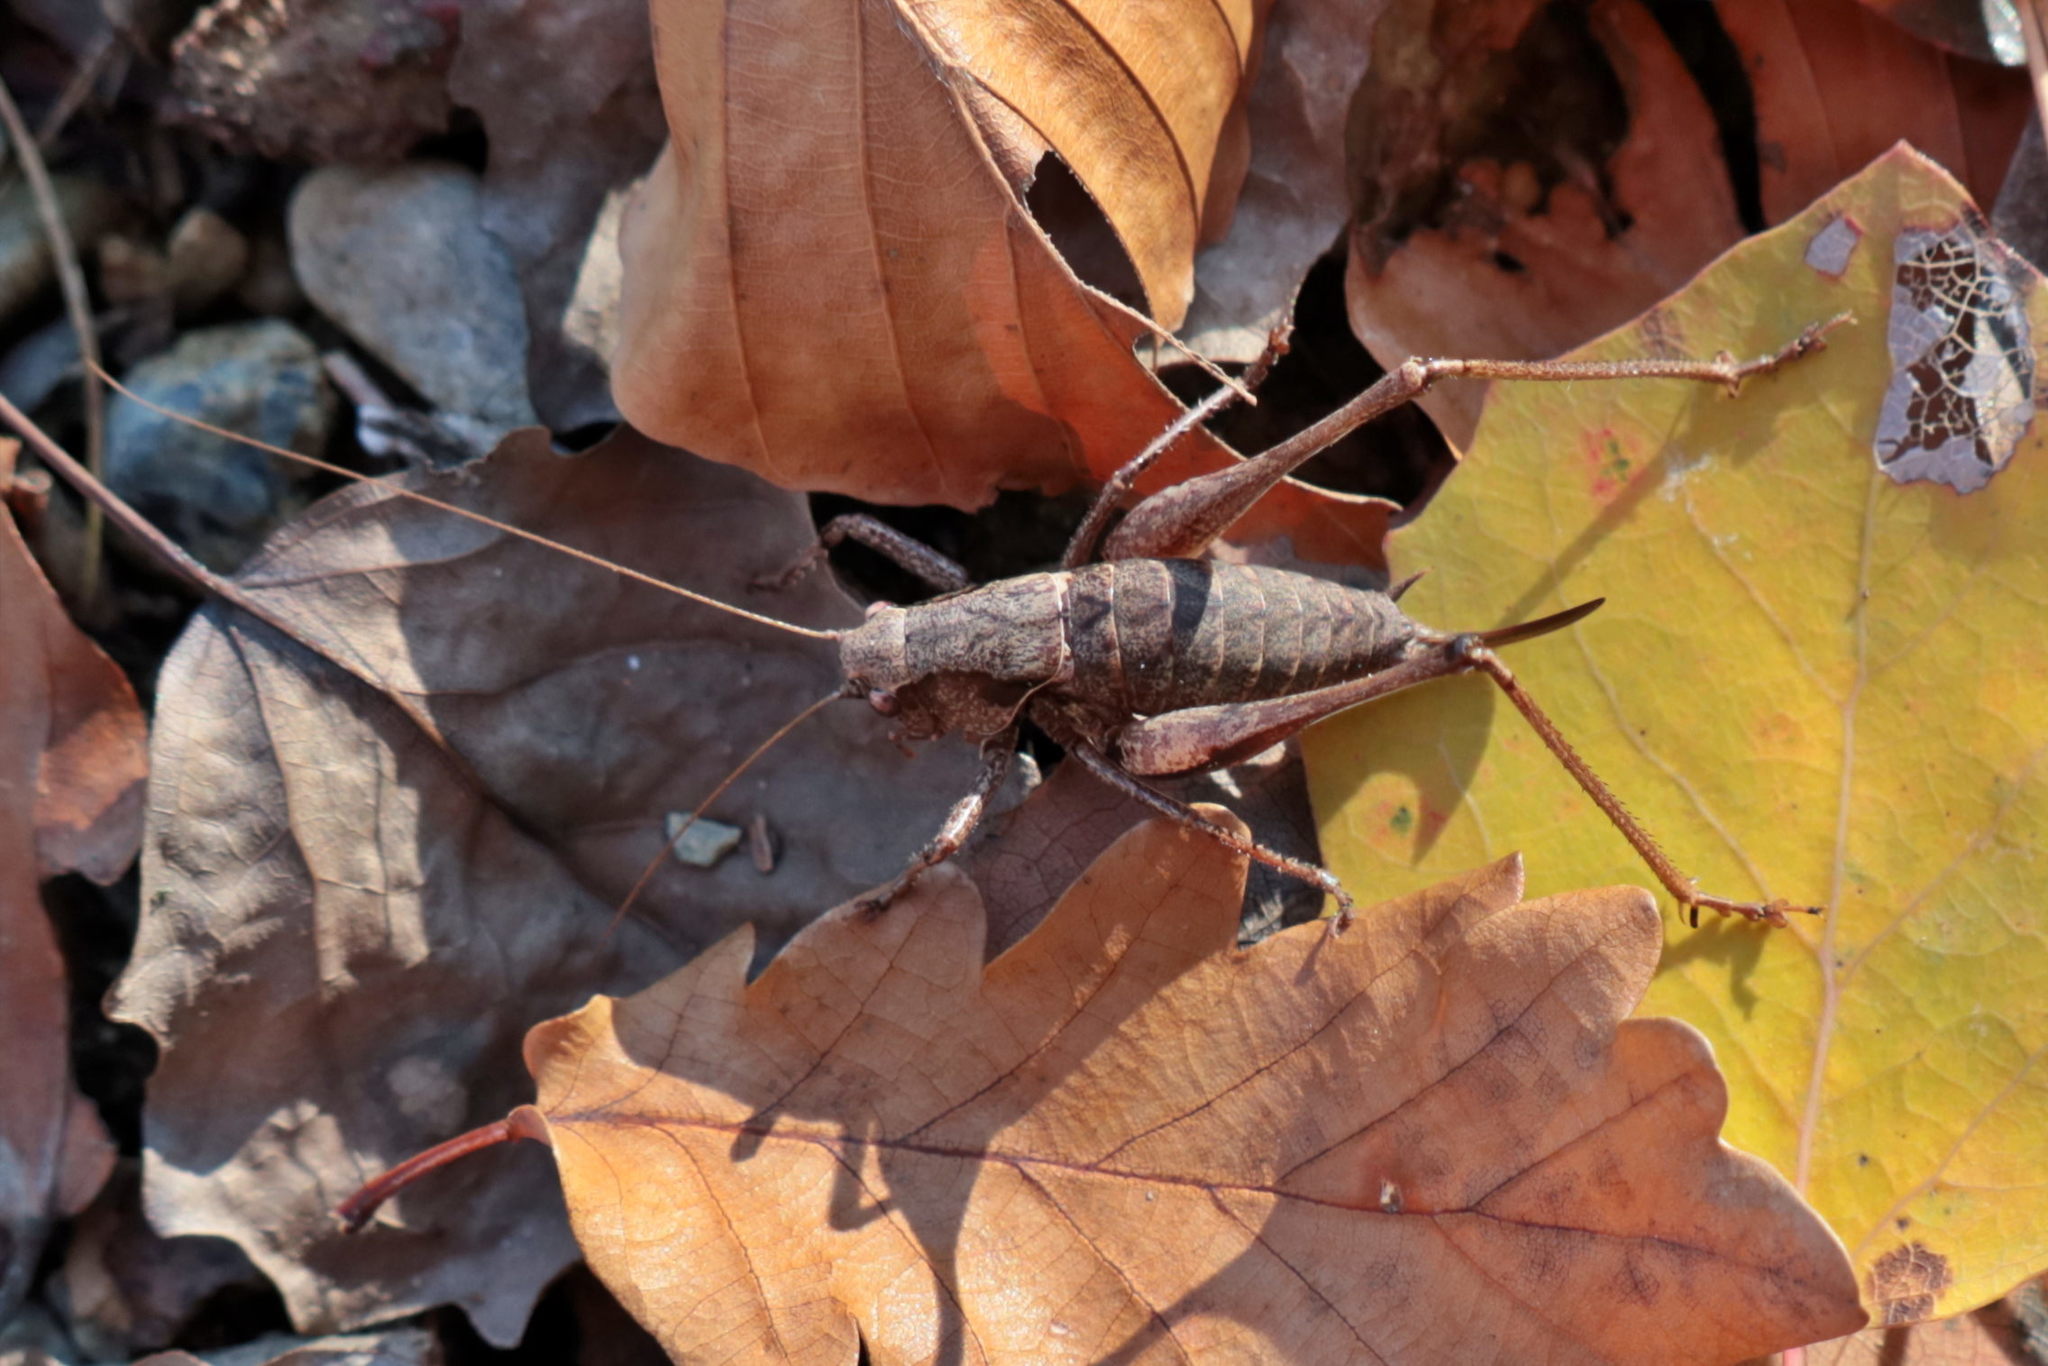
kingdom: Animalia
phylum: Arthropoda
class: Insecta
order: Orthoptera
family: Tettigoniidae
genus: Pholidoptera
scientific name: Pholidoptera griseoaptera
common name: Dark bush-cricket
